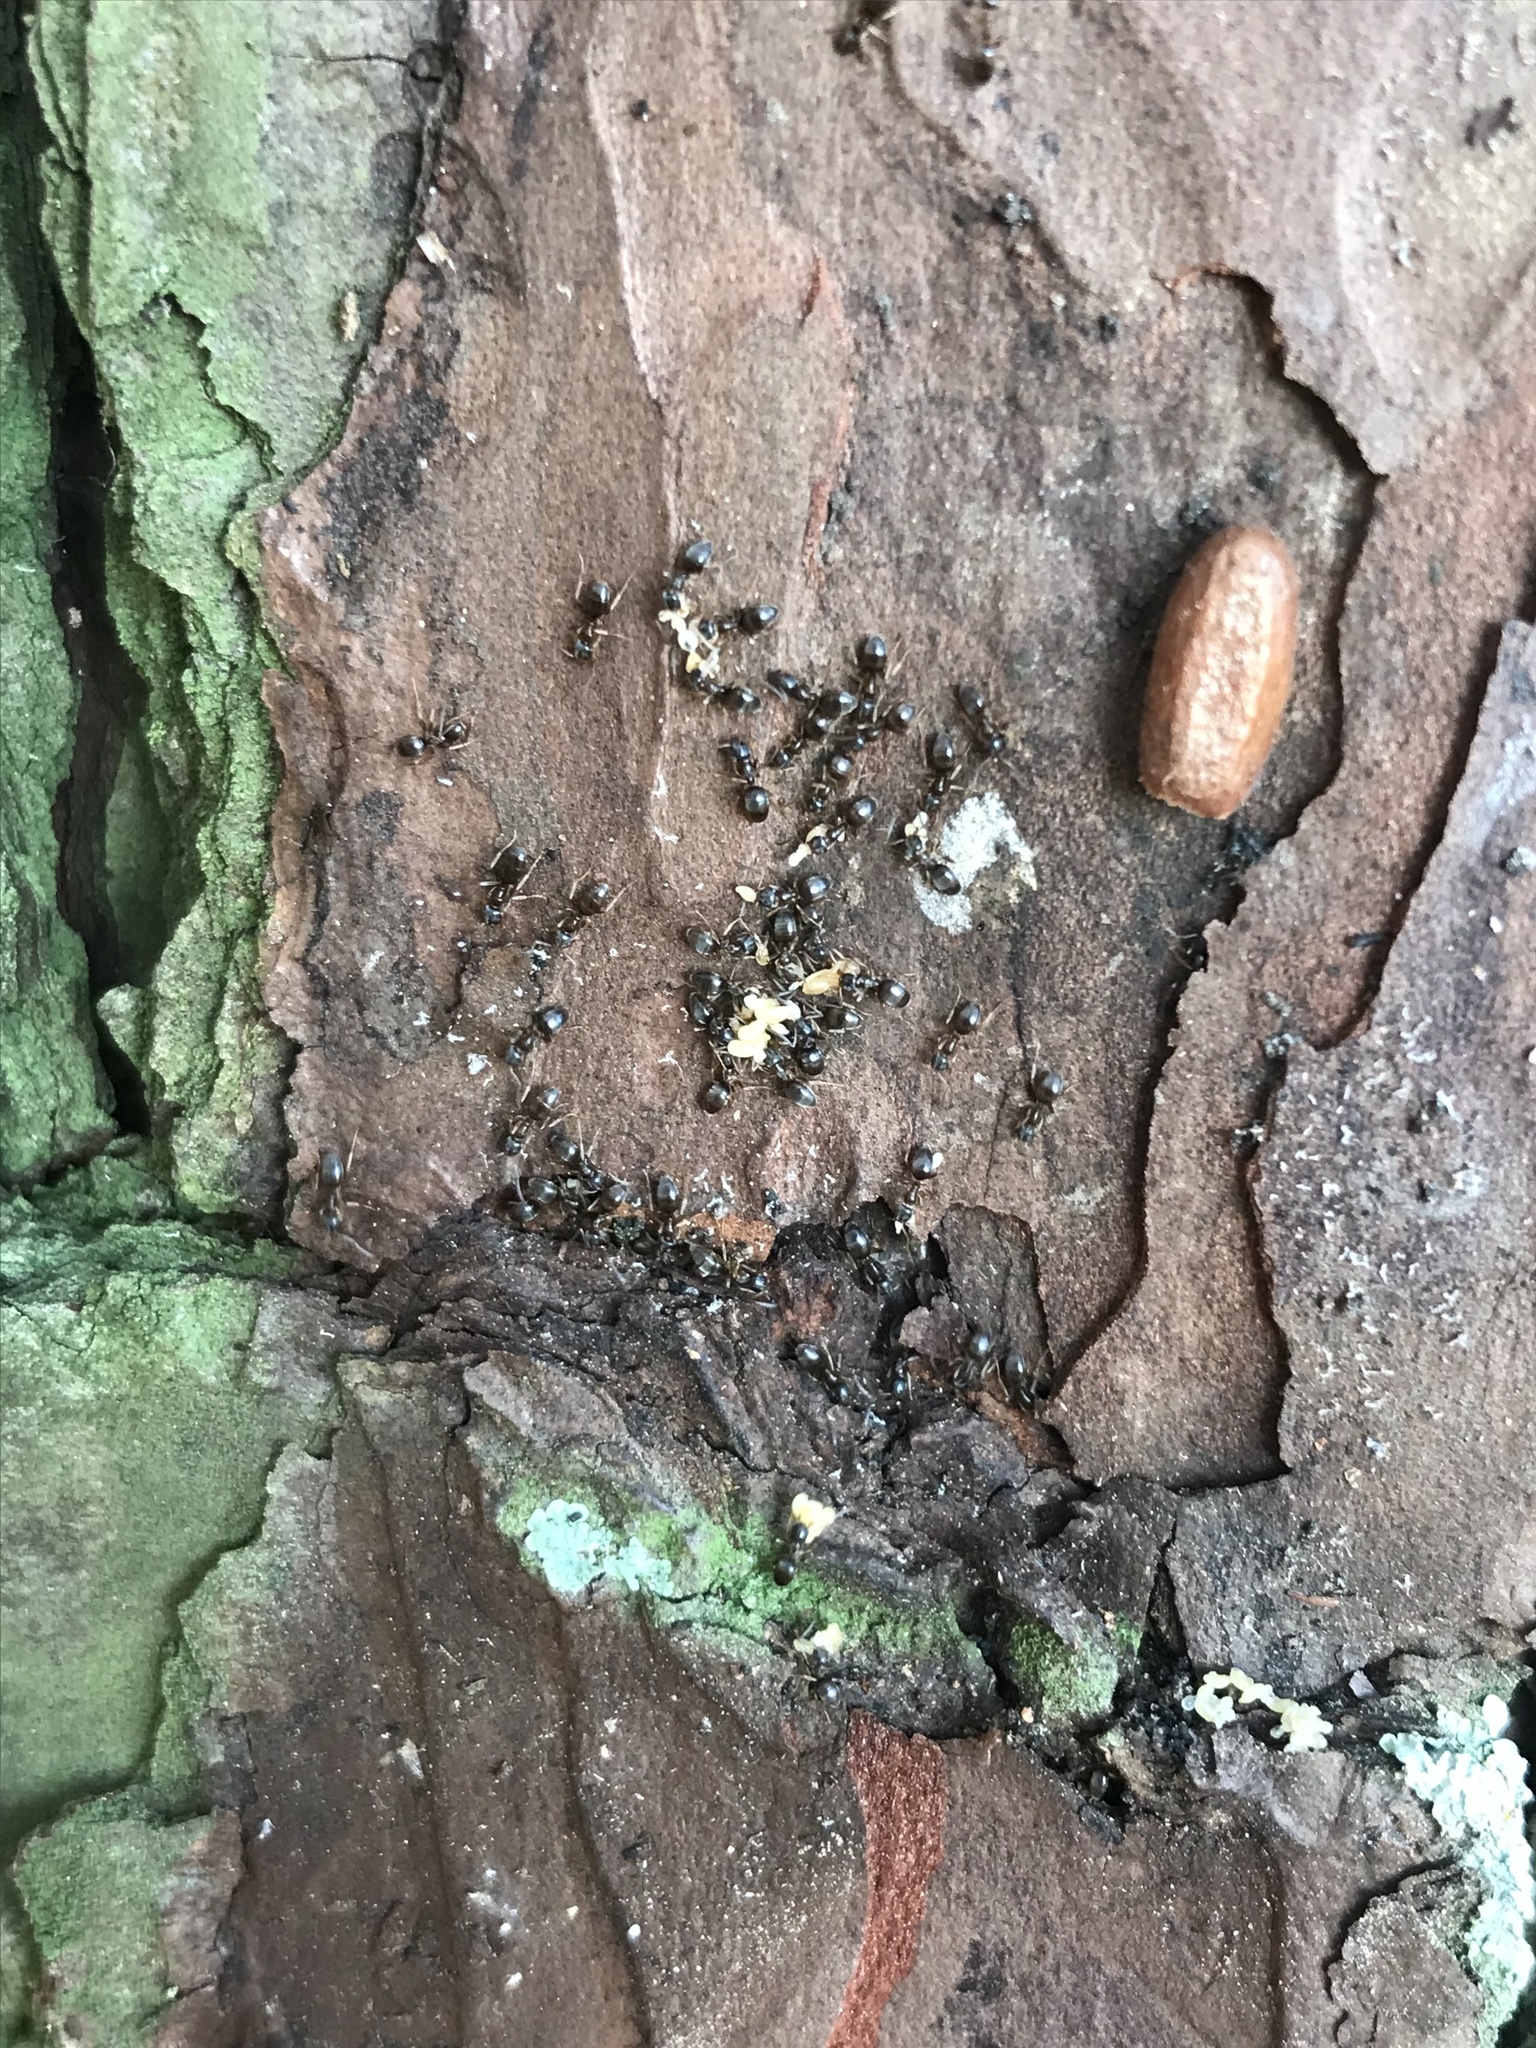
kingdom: Animalia
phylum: Arthropoda
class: Insecta
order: Hymenoptera
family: Formicidae
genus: Tapinoma
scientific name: Tapinoma sessile
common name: Odorous house ant
